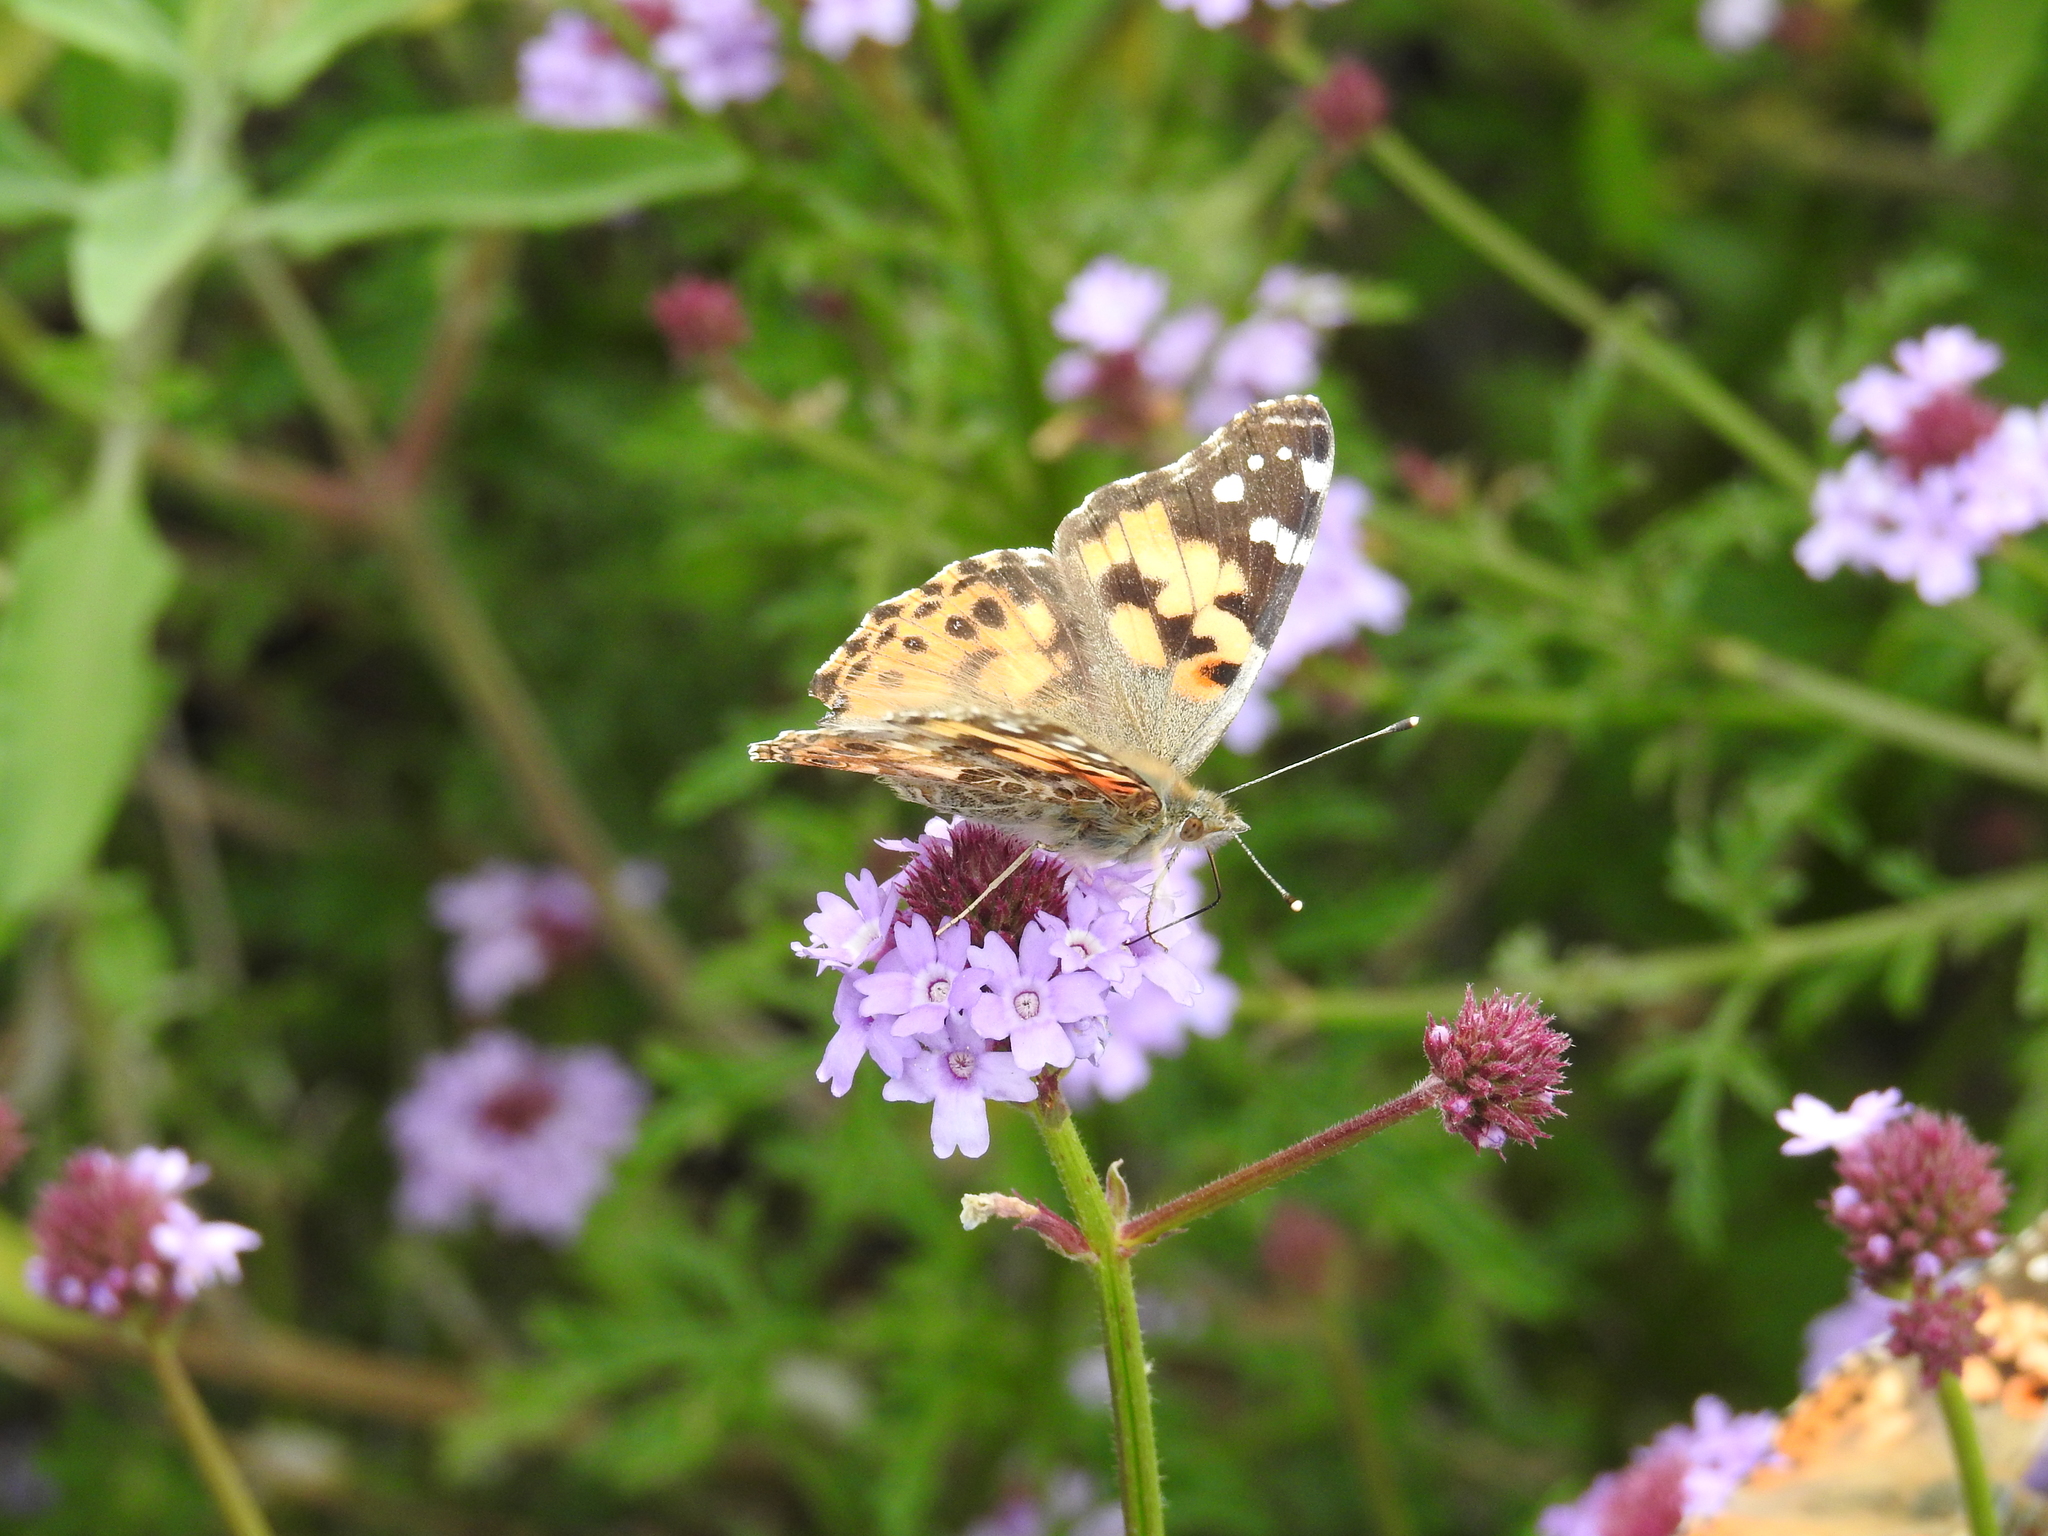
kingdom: Animalia
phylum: Arthropoda
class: Insecta
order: Lepidoptera
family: Nymphalidae
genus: Vanessa
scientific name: Vanessa cardui
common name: Painted lady
